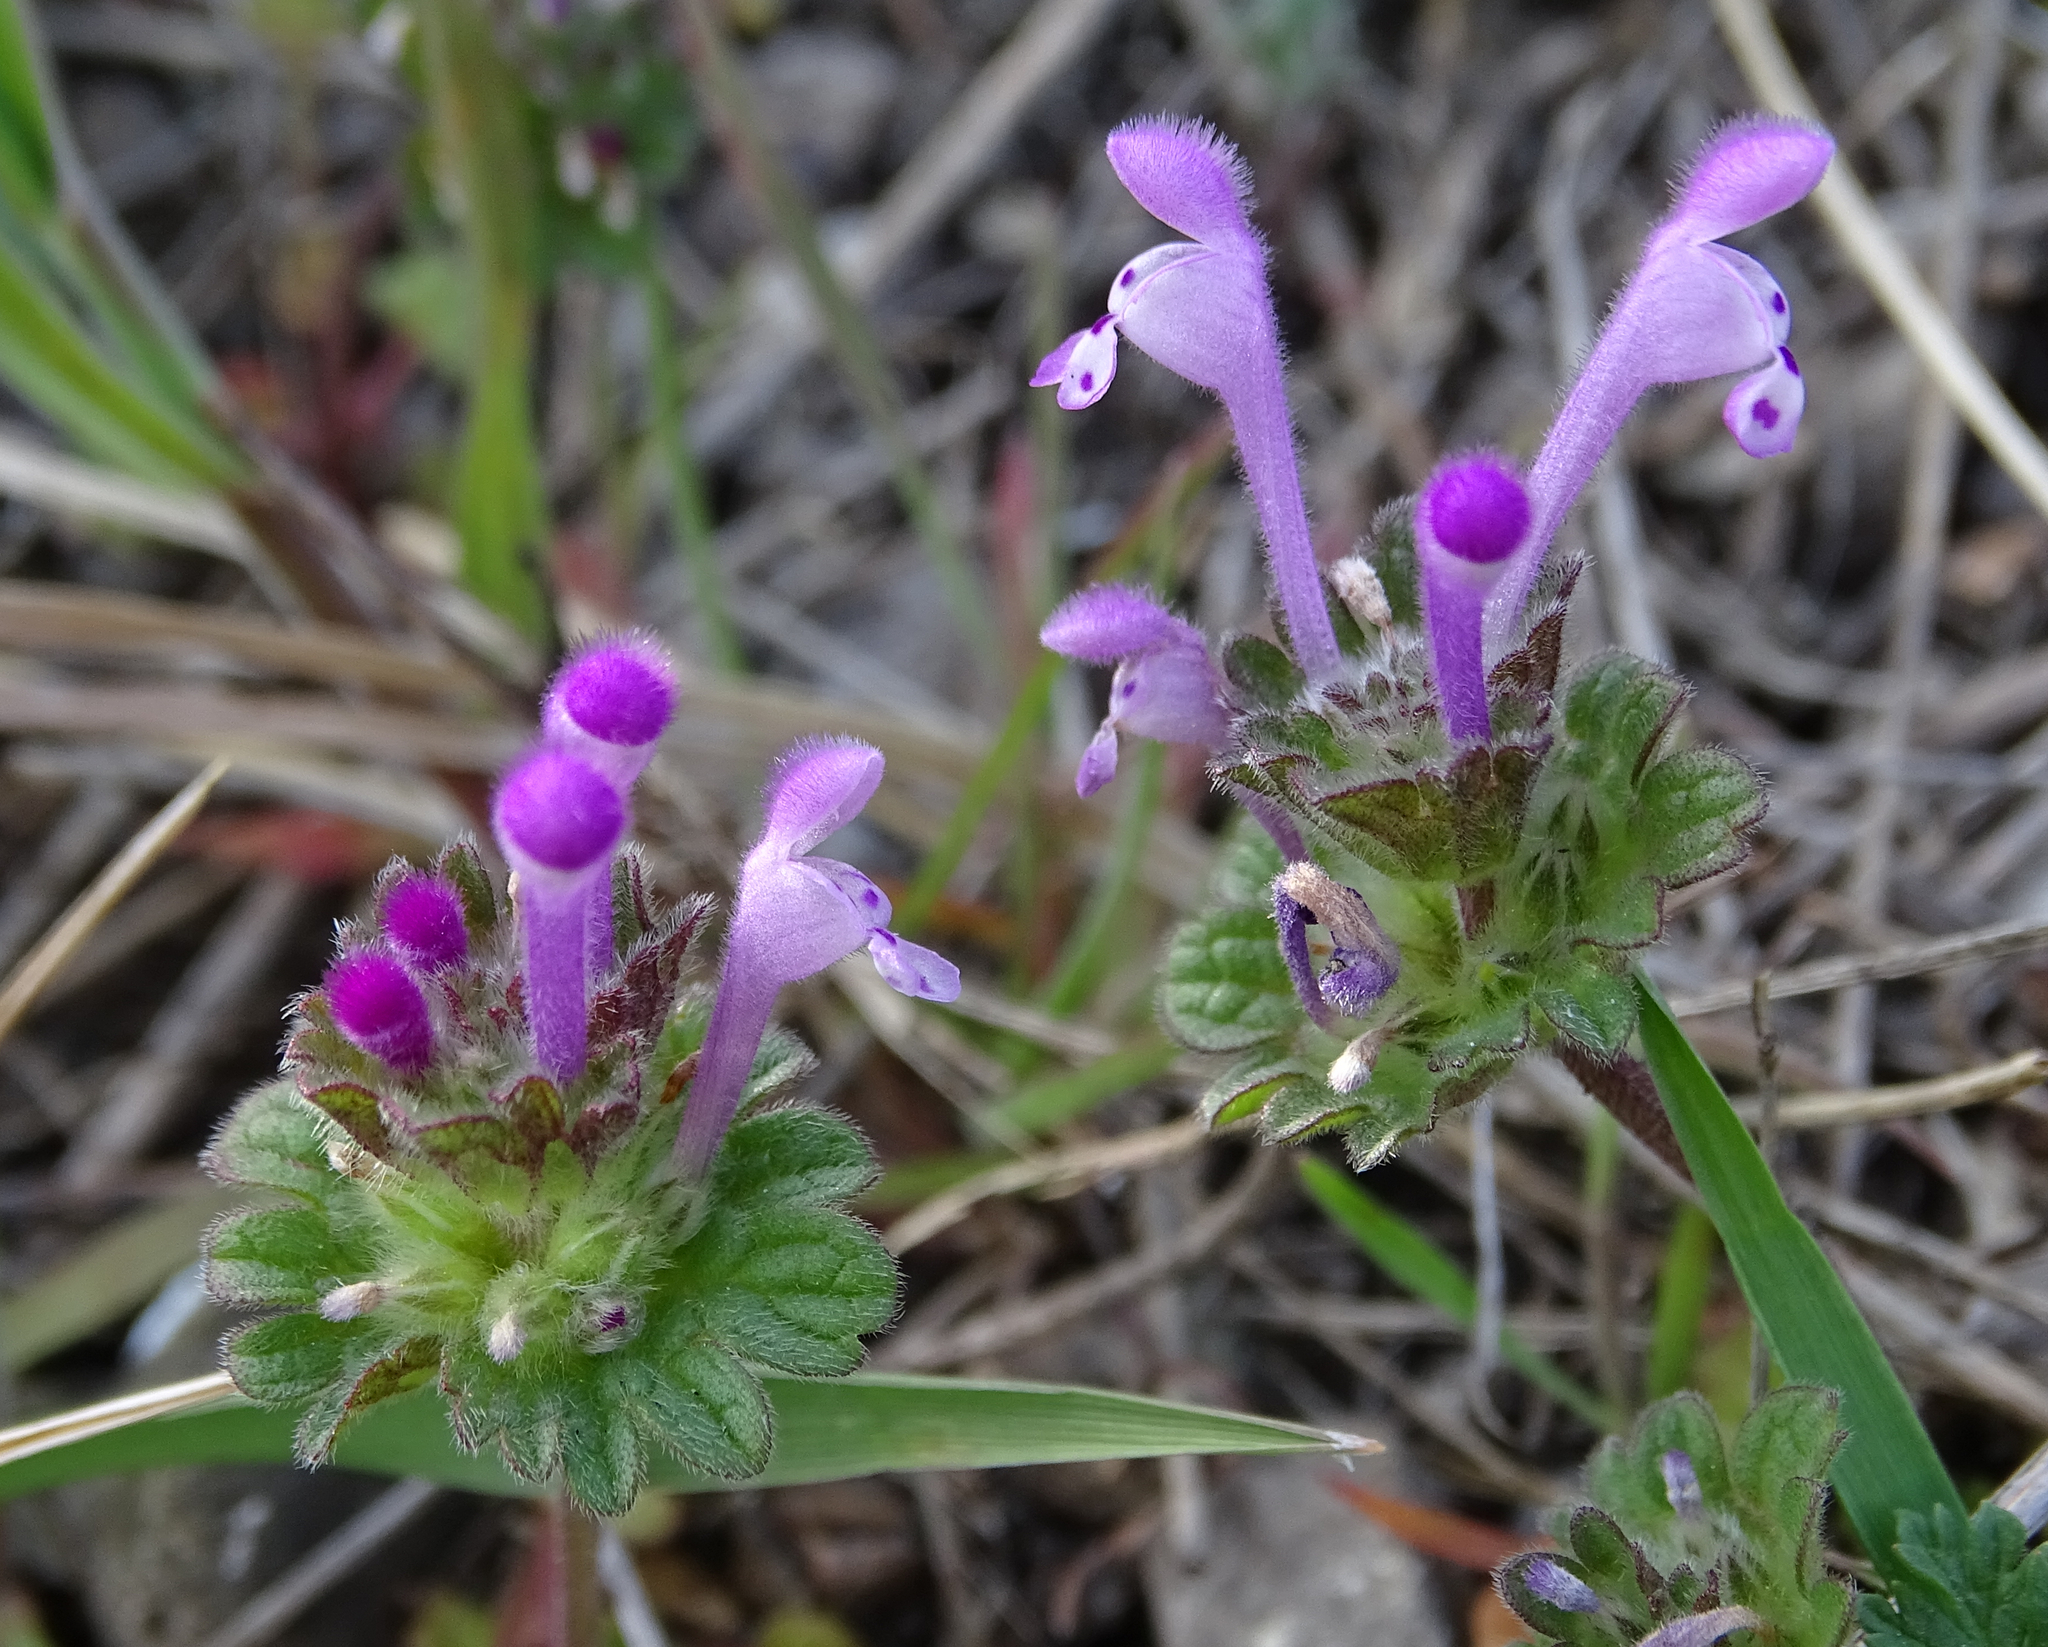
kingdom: Plantae
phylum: Tracheophyta
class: Magnoliopsida
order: Lamiales
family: Lamiaceae
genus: Lamium
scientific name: Lamium amplexicaule
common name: Henbit dead-nettle
